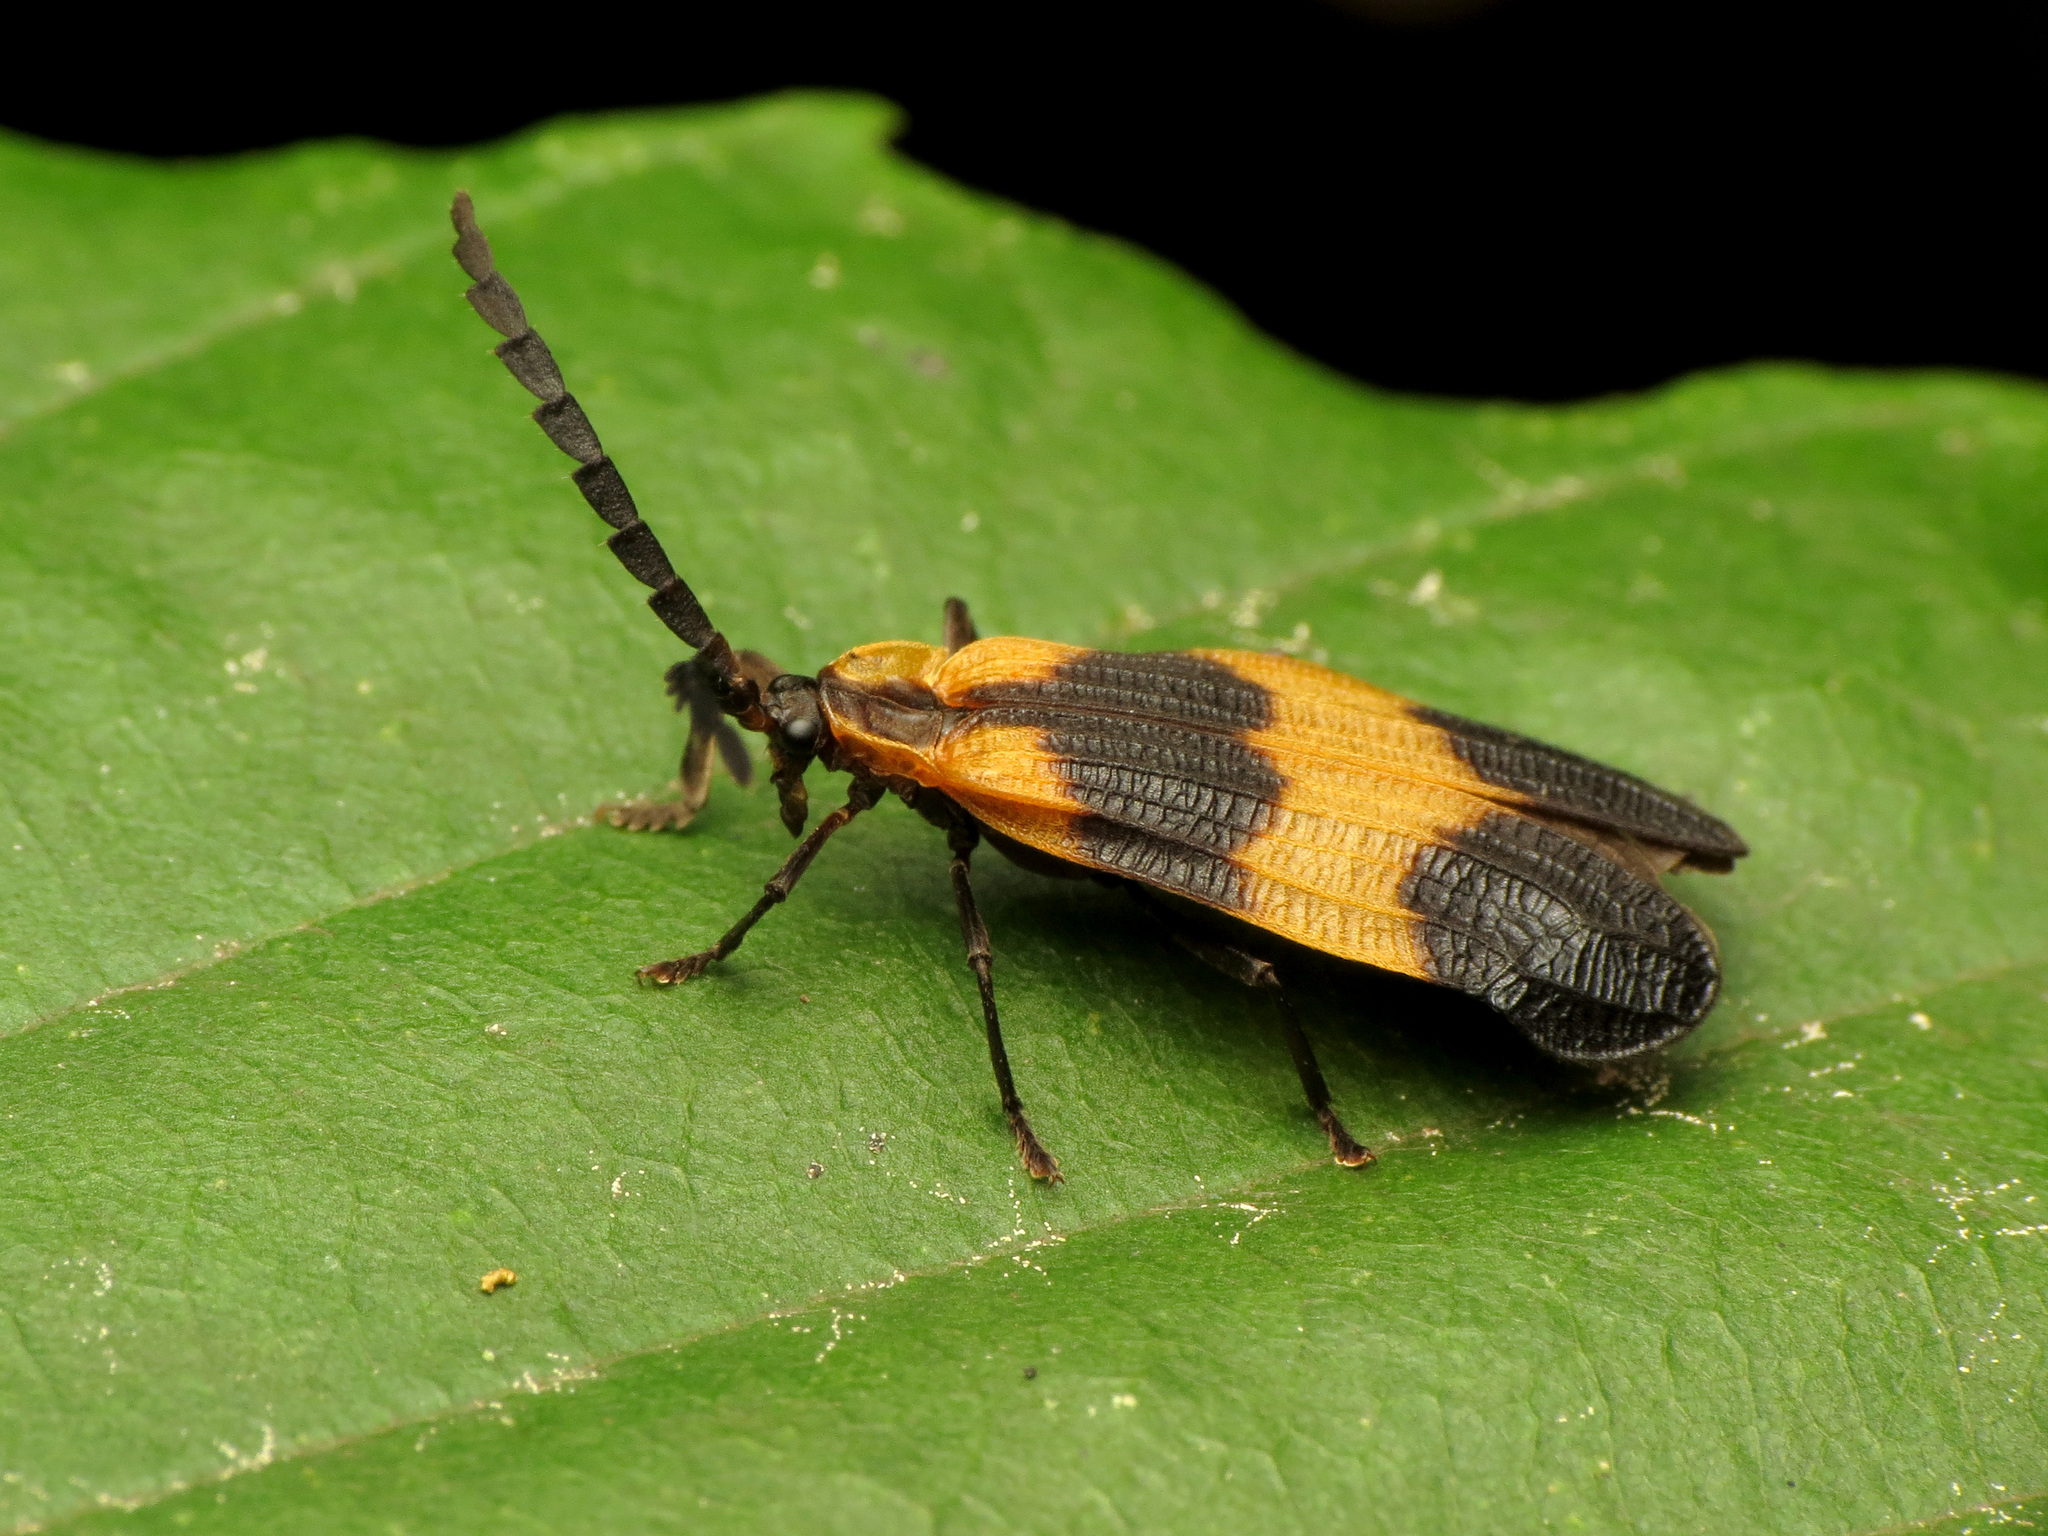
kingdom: Animalia
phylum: Arthropoda
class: Insecta
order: Coleoptera
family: Lycidae
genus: Calopteron
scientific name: Calopteron reticulatum
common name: Banded net-winged beetle
